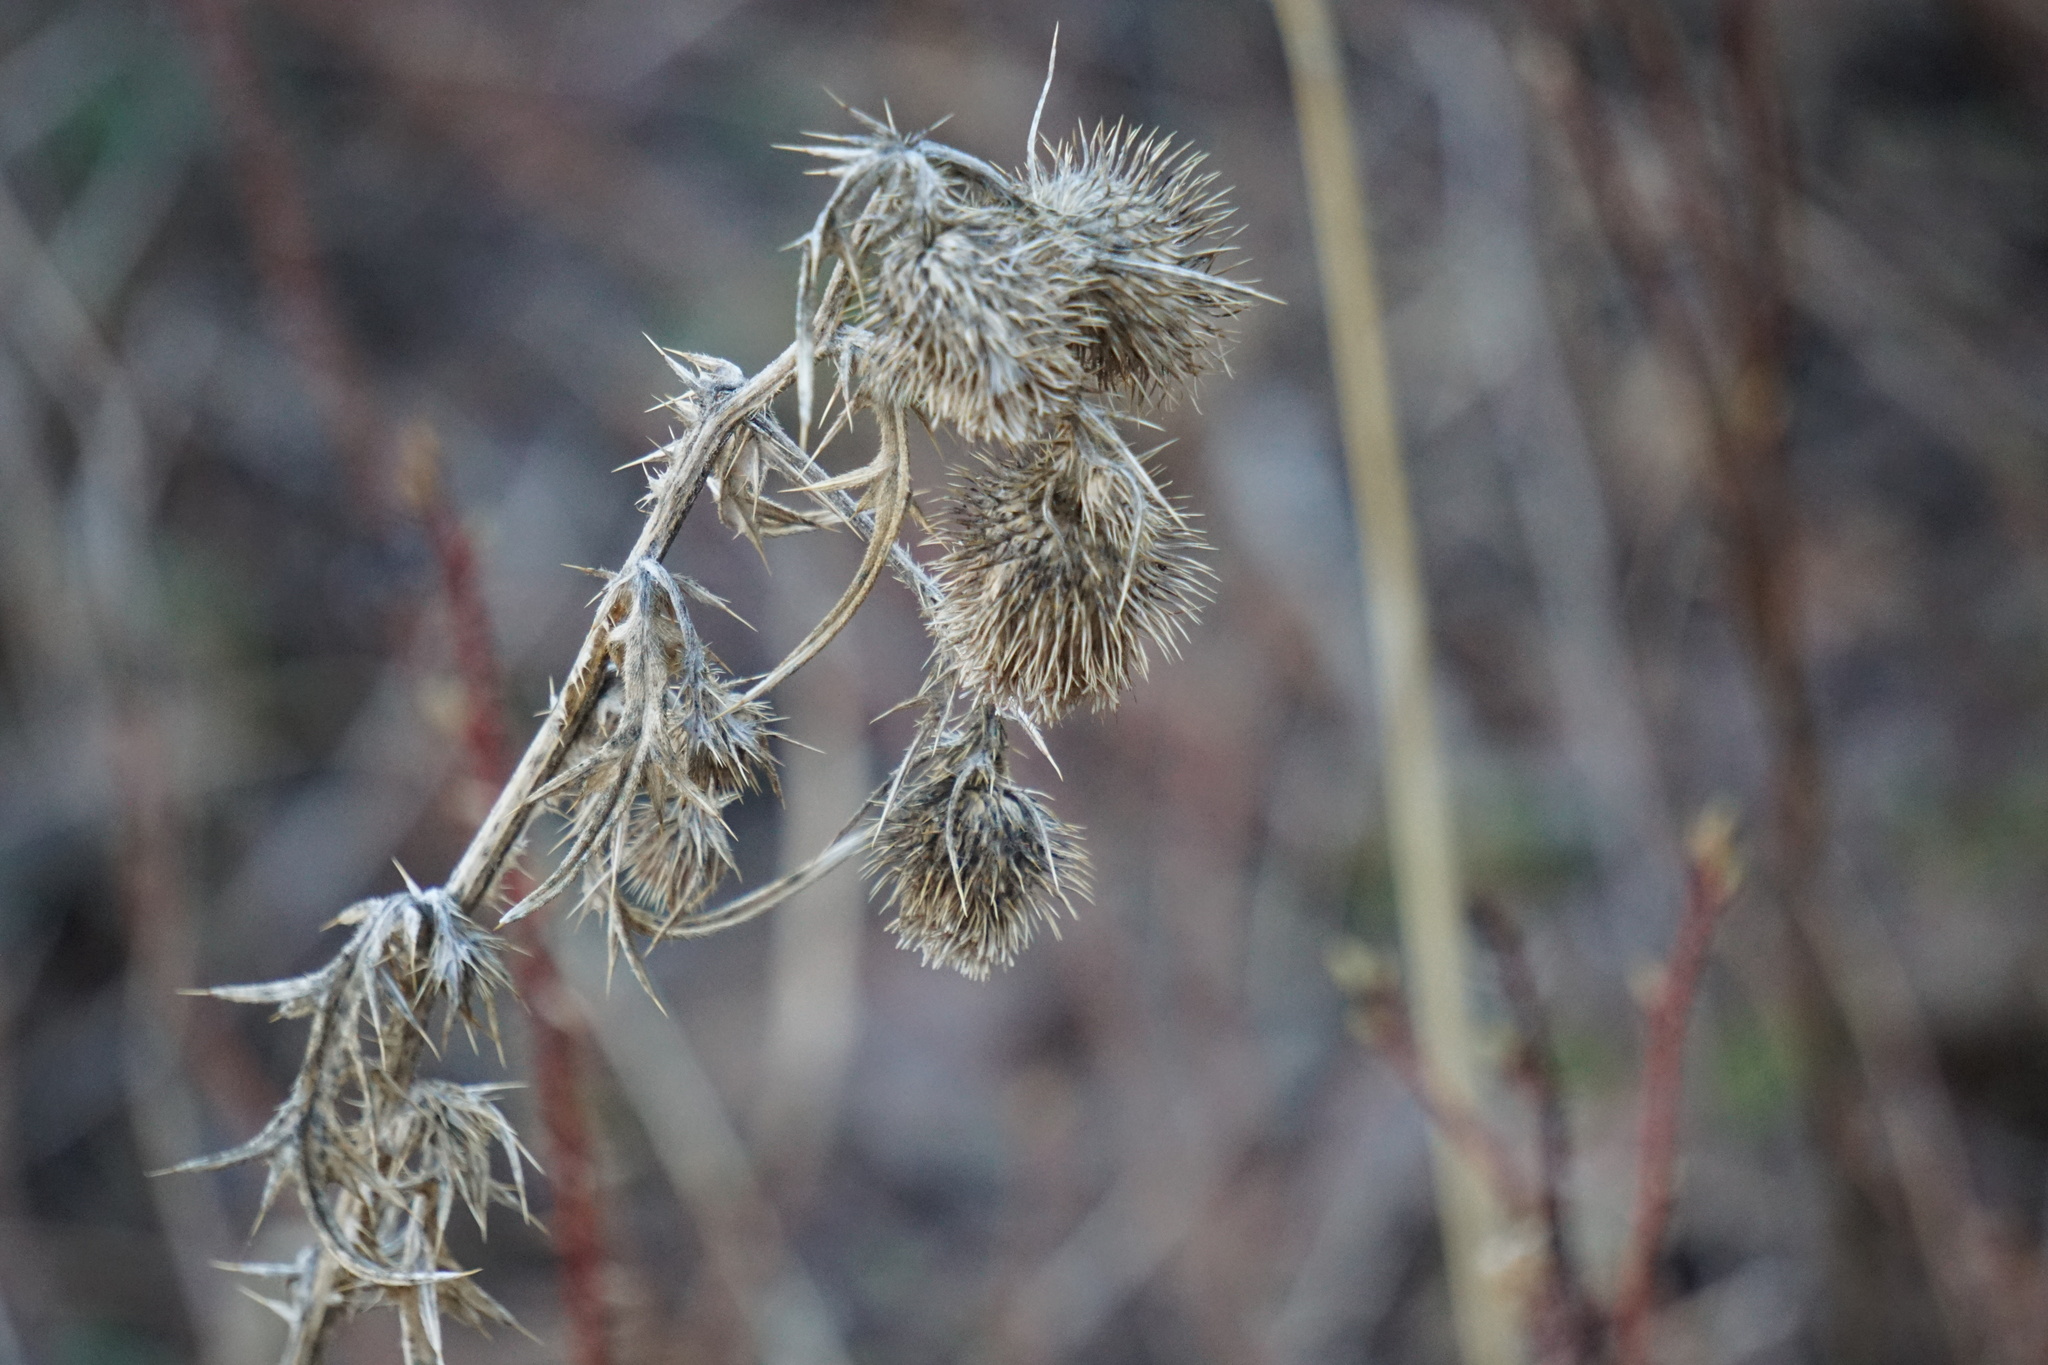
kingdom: Plantae
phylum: Tracheophyta
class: Magnoliopsida
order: Asterales
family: Asteraceae
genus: Cirsium
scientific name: Cirsium vulgare
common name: Bull thistle
